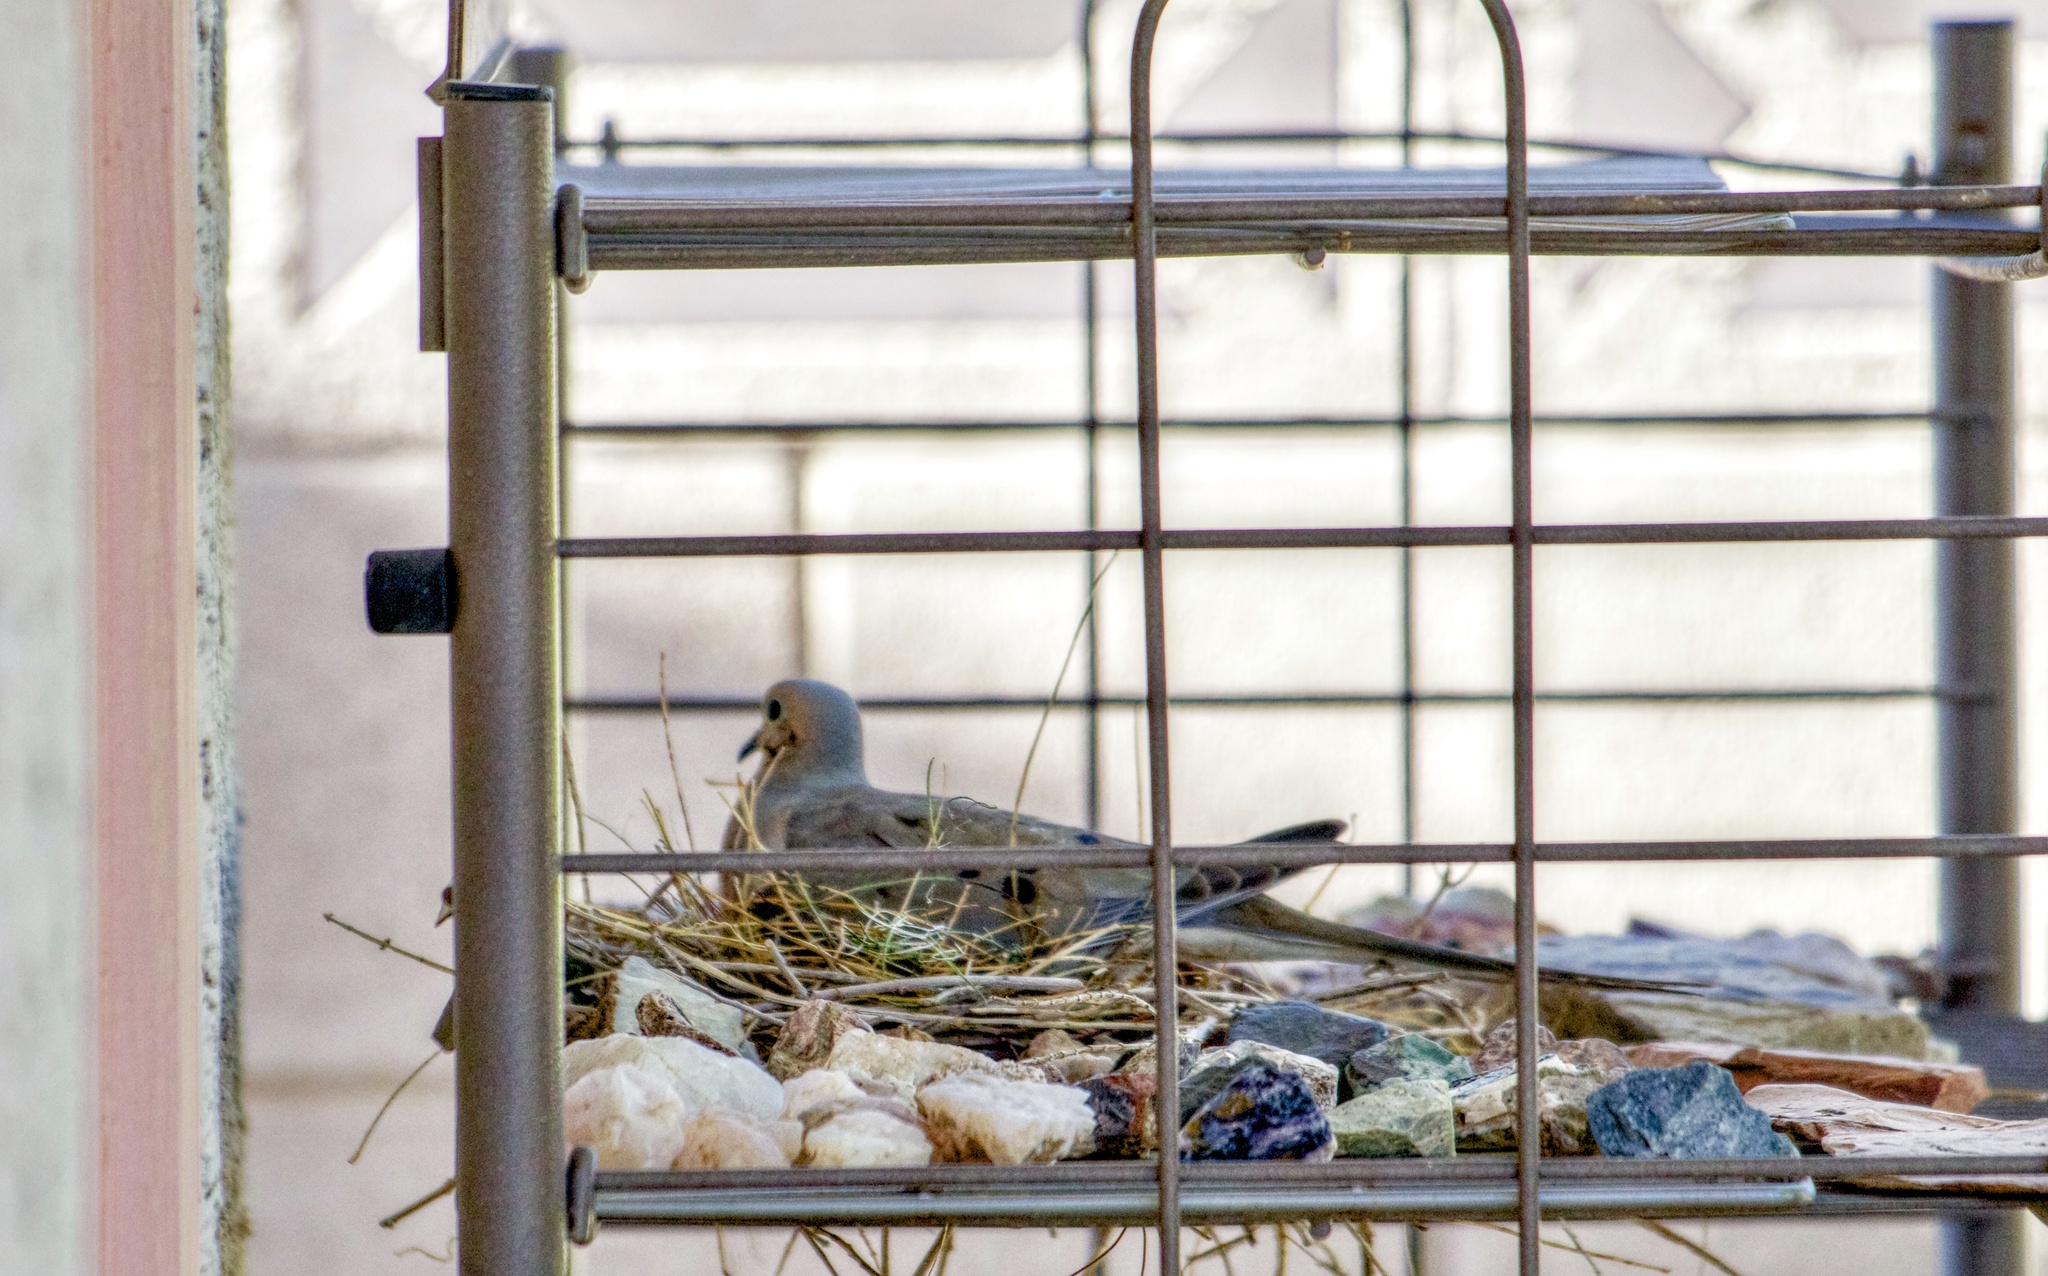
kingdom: Animalia
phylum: Chordata
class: Aves
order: Columbiformes
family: Columbidae
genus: Zenaida
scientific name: Zenaida macroura
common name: Mourning dove
